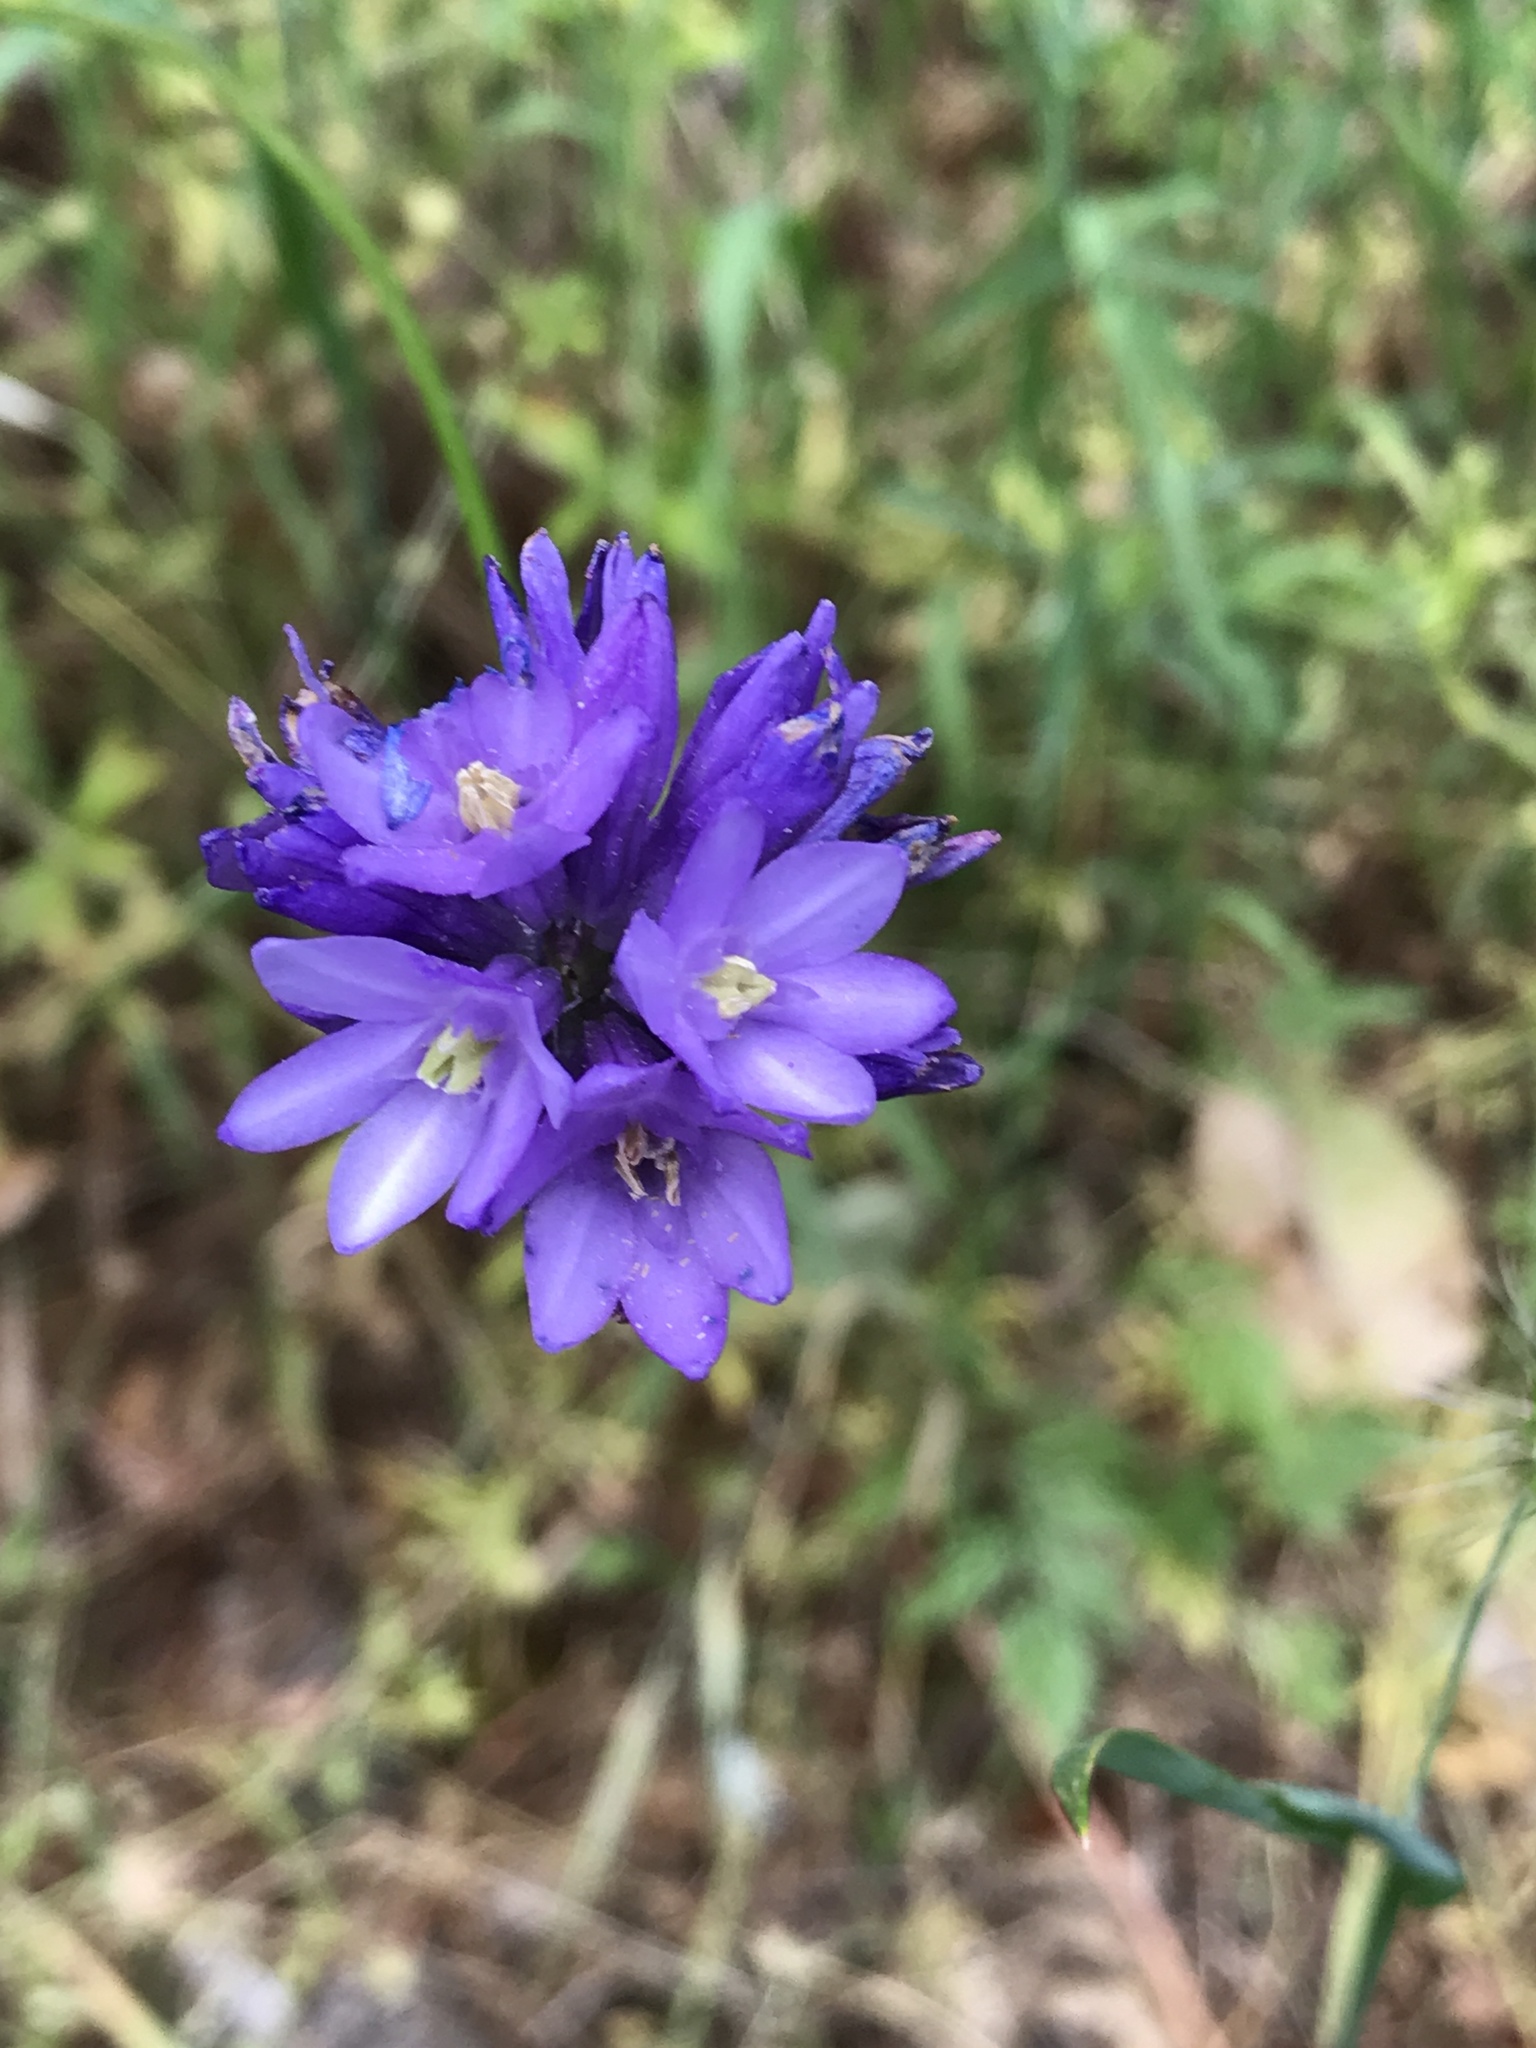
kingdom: Plantae
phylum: Tracheophyta
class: Liliopsida
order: Asparagales
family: Asparagaceae
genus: Dipterostemon
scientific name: Dipterostemon capitatus
